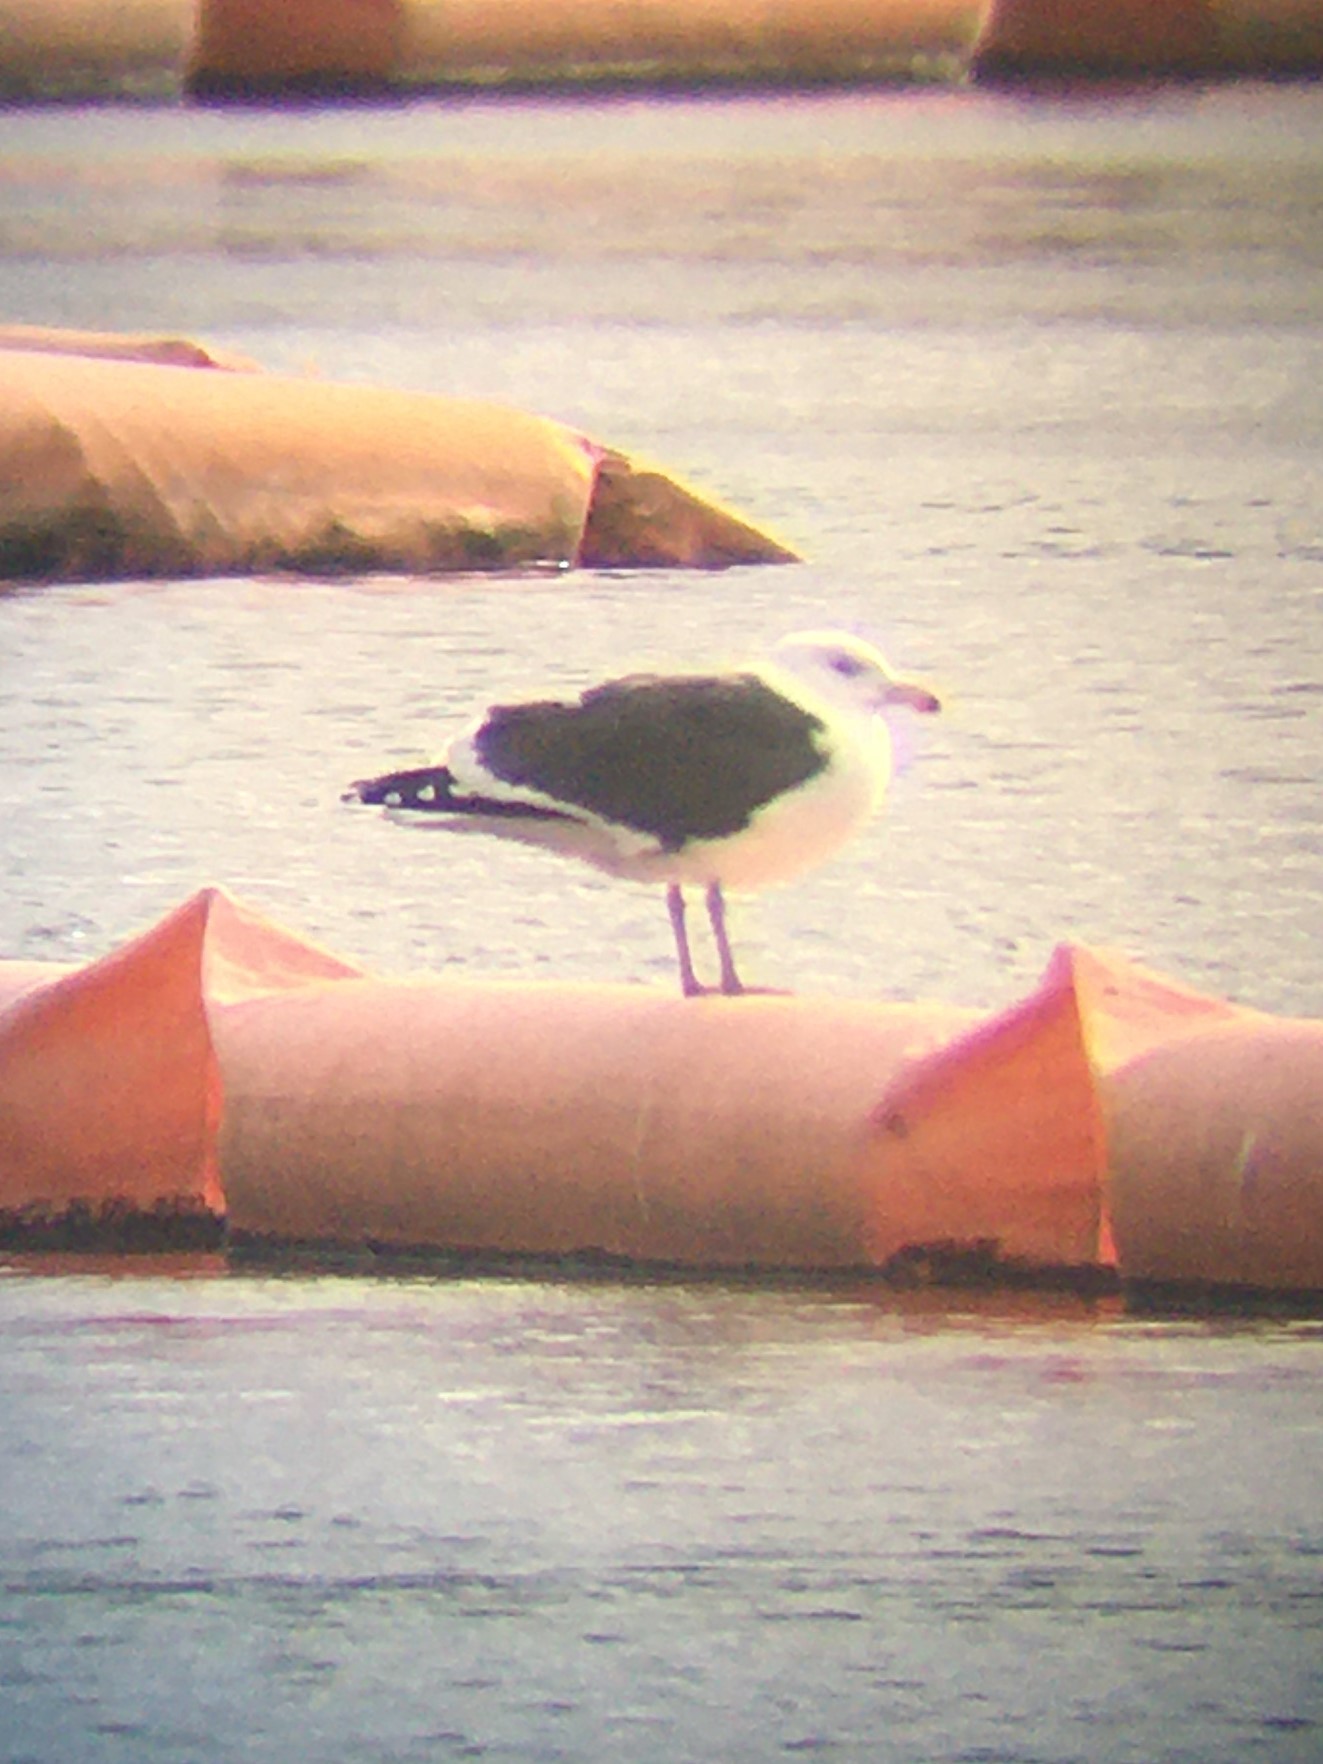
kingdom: Animalia
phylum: Chordata
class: Aves
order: Charadriiformes
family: Laridae
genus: Larus
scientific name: Larus marinus
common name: Great black-backed gull
